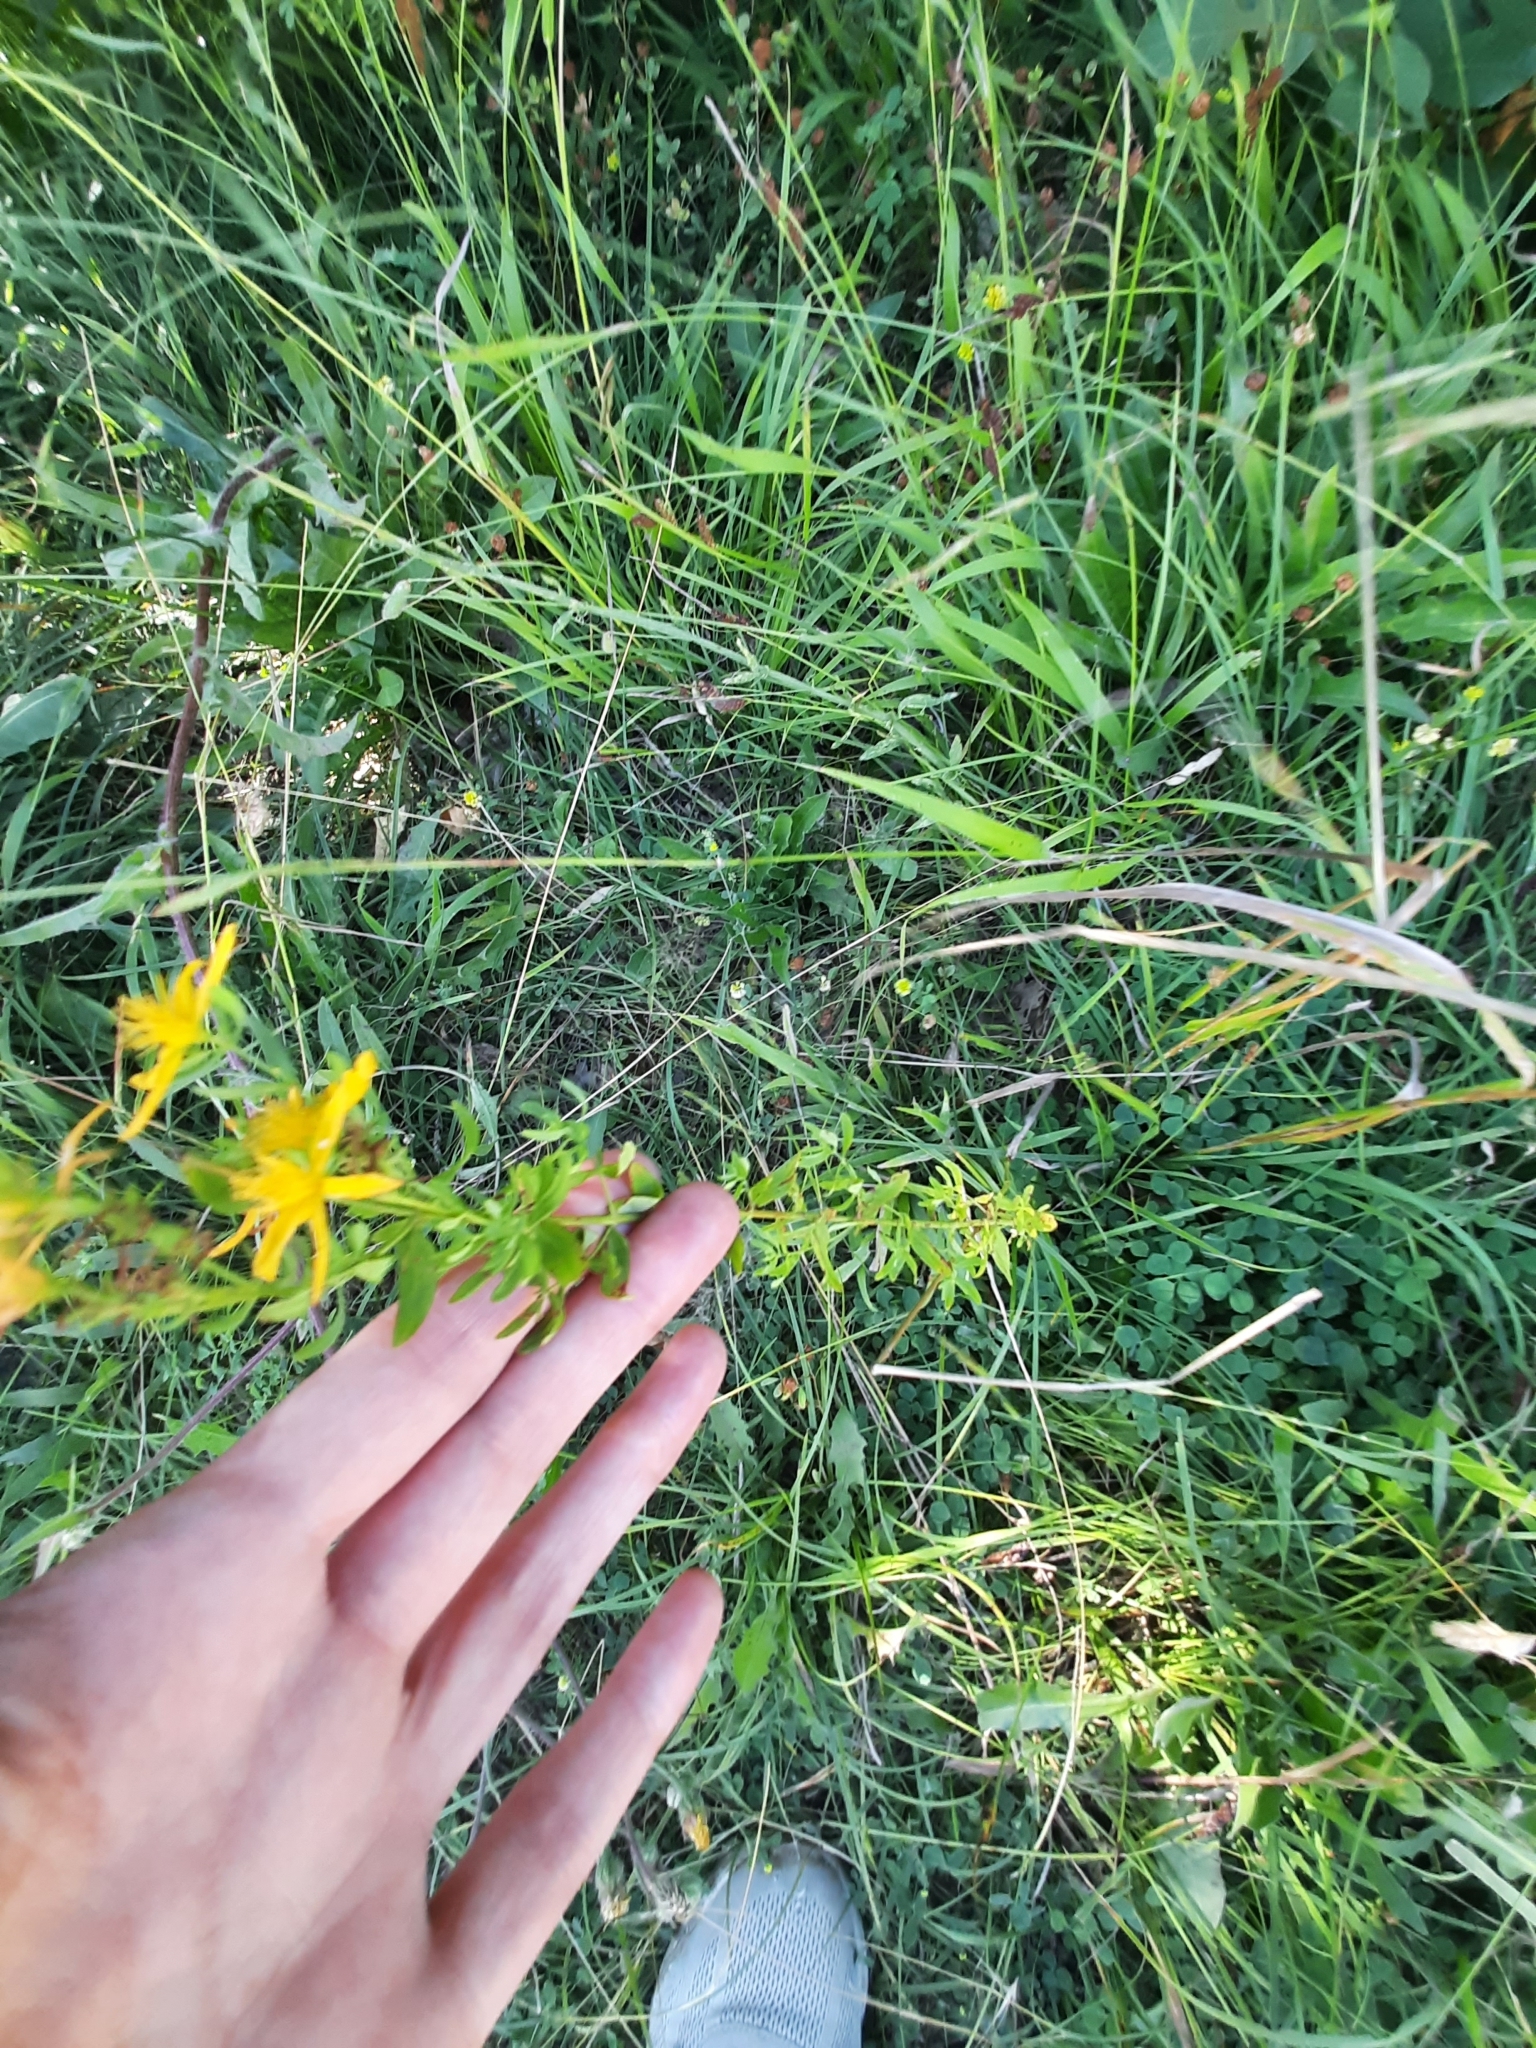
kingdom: Plantae
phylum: Tracheophyta
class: Magnoliopsida
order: Malpighiales
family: Hypericaceae
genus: Hypericum
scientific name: Hypericum perforatum
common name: Common st. johnswort
